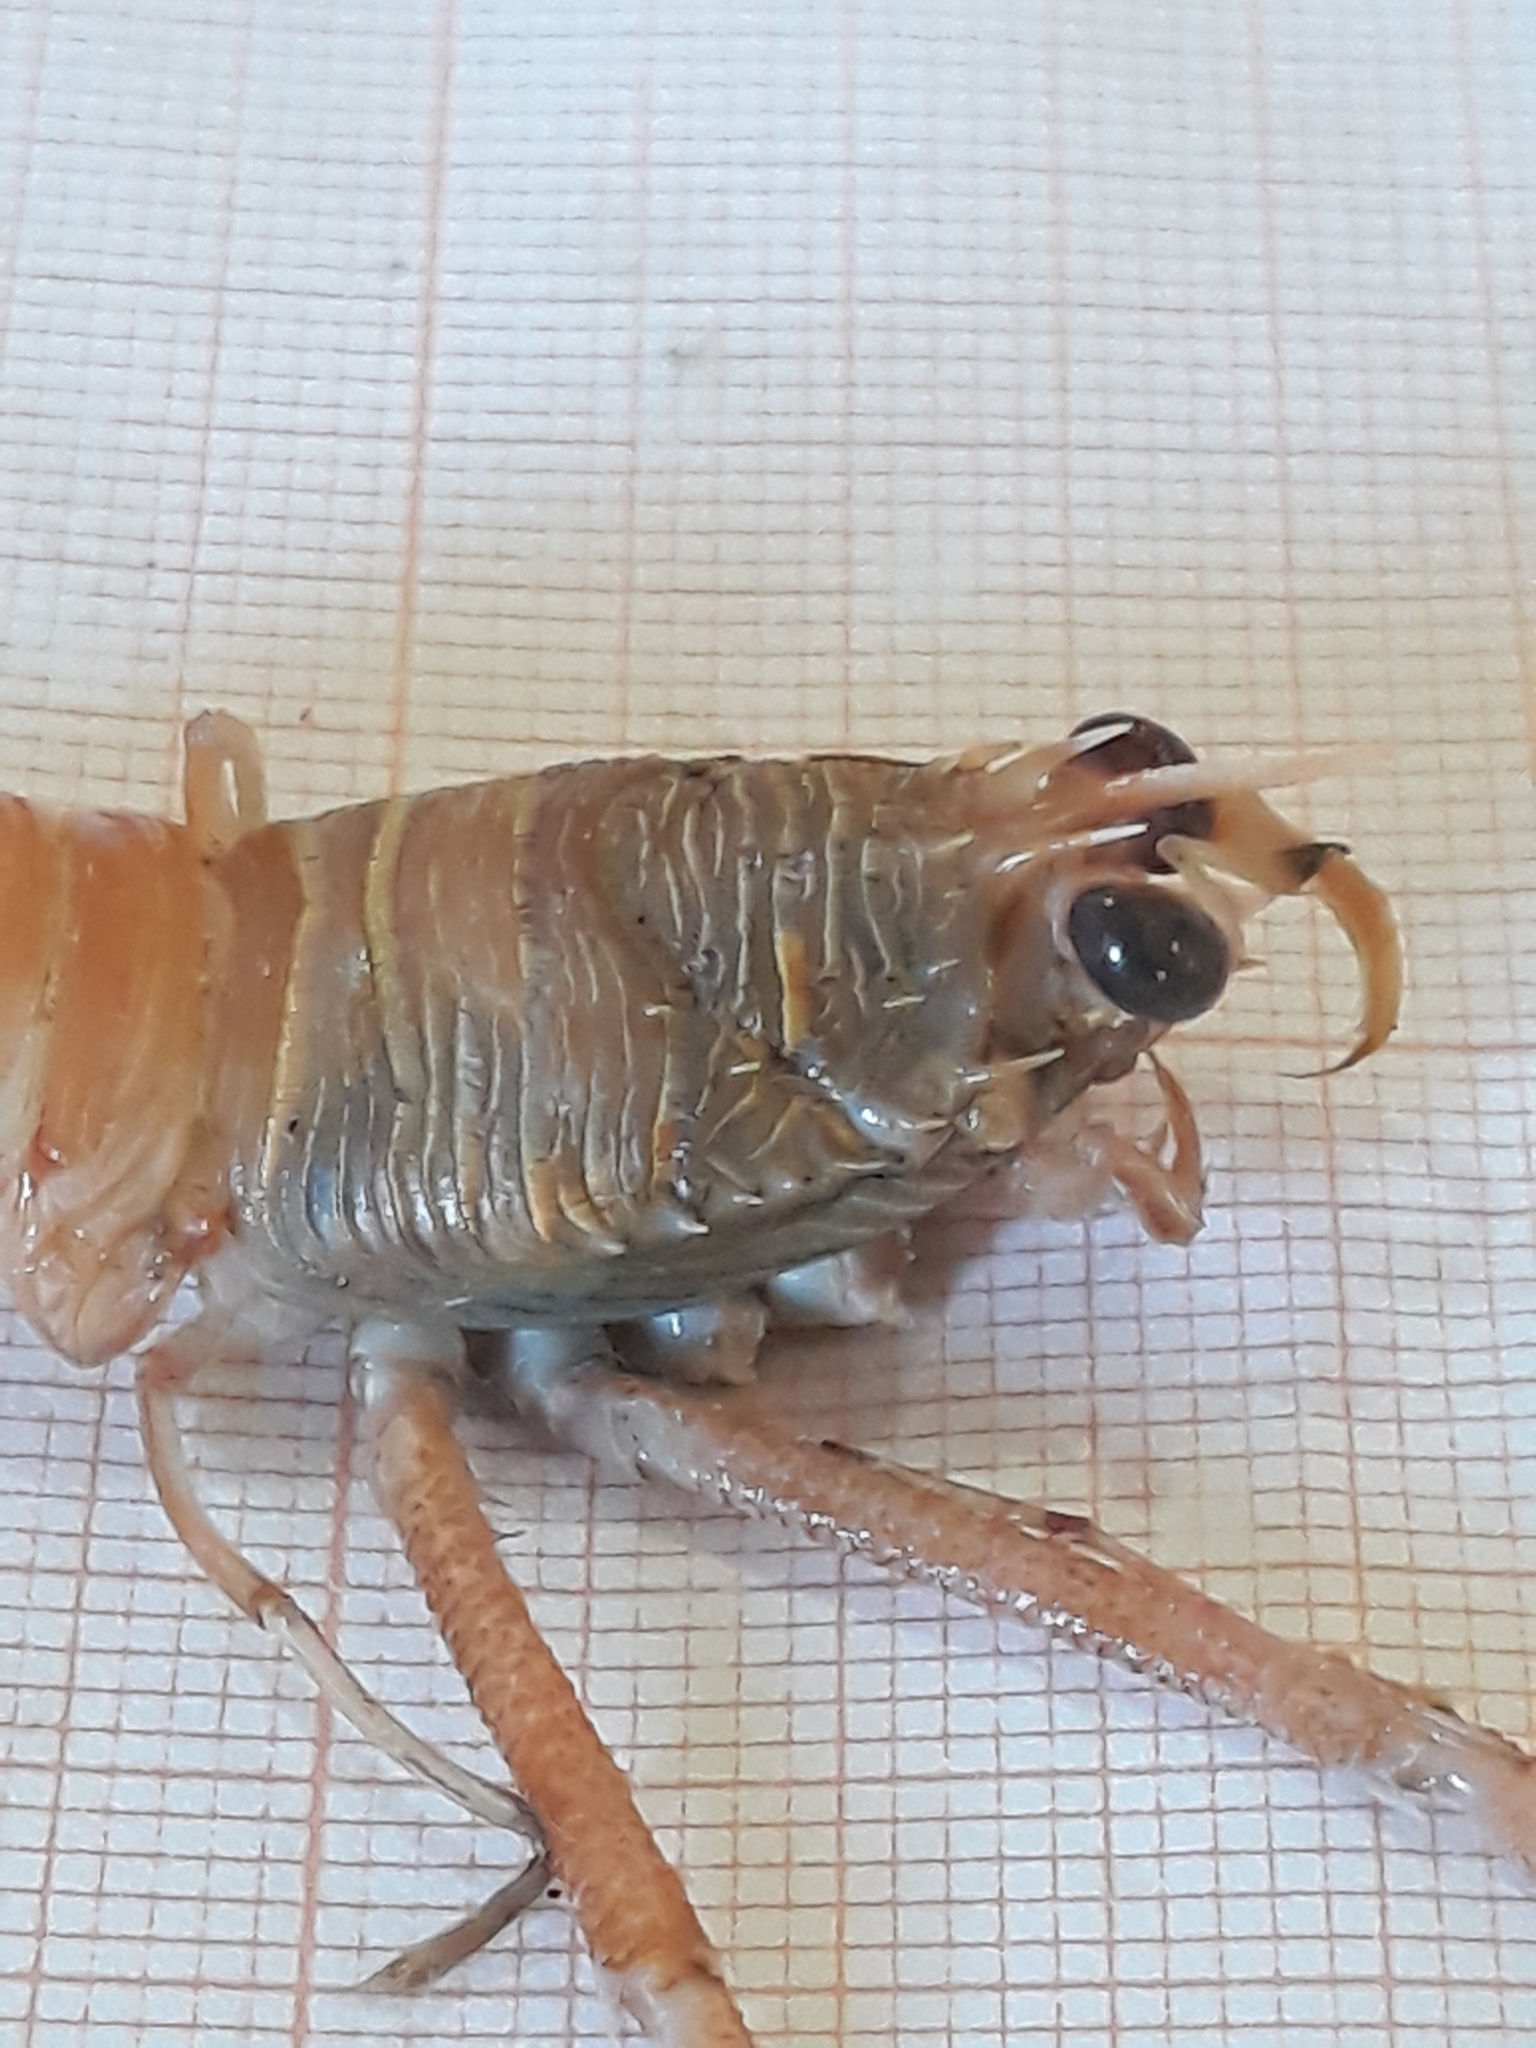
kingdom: Animalia
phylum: Arthropoda
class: Malacostraca
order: Decapoda
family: Munididae
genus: Munida
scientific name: Munida intermedia
